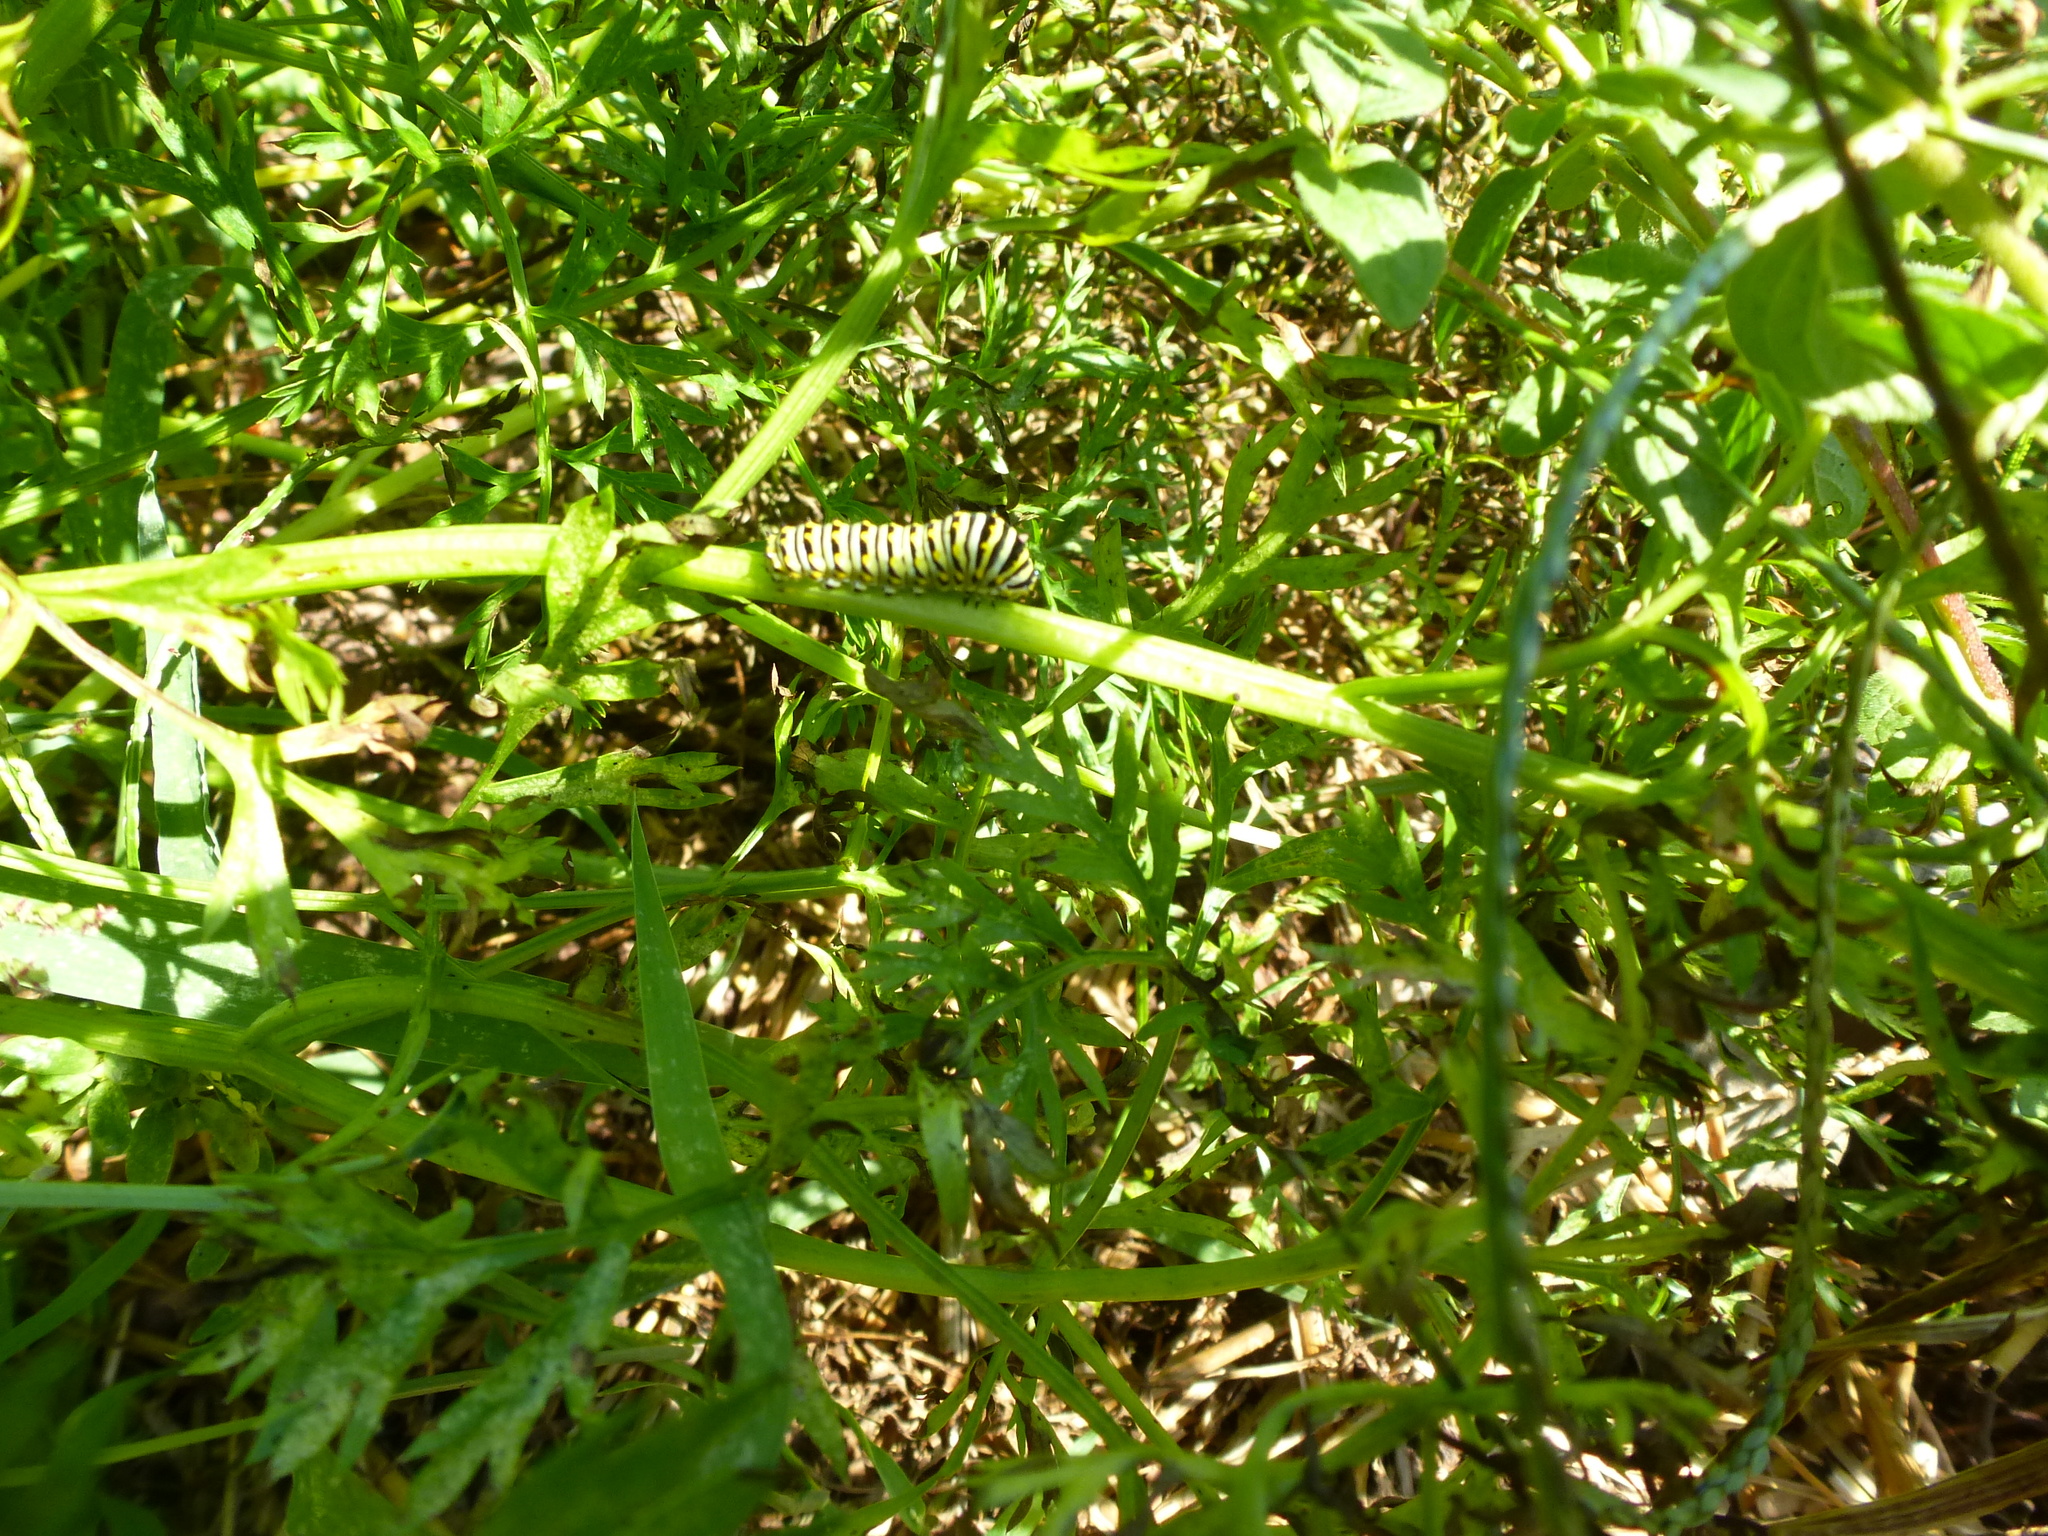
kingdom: Animalia
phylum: Arthropoda
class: Insecta
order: Lepidoptera
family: Papilionidae
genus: Papilio
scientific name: Papilio polyxenes
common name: Black swallowtail
